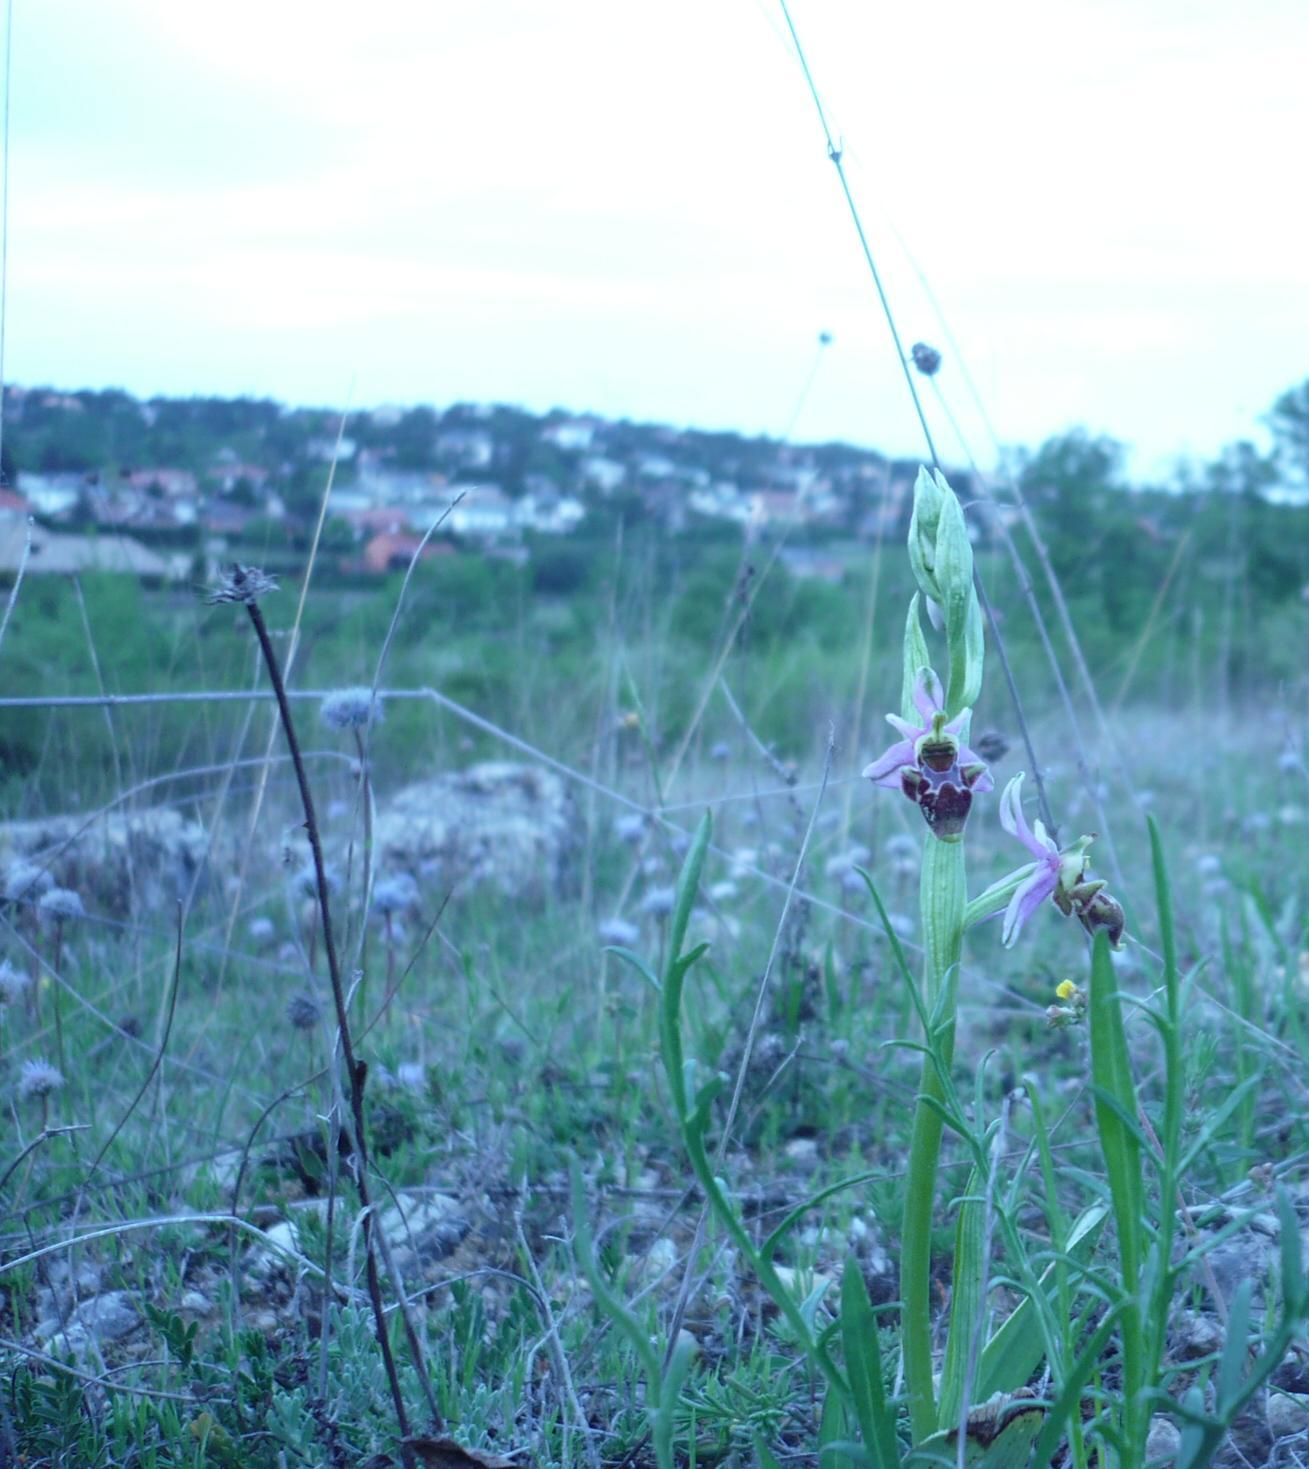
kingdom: Plantae
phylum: Tracheophyta
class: Liliopsida
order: Asparagales
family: Orchidaceae
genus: Ophrys
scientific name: Ophrys scolopax
